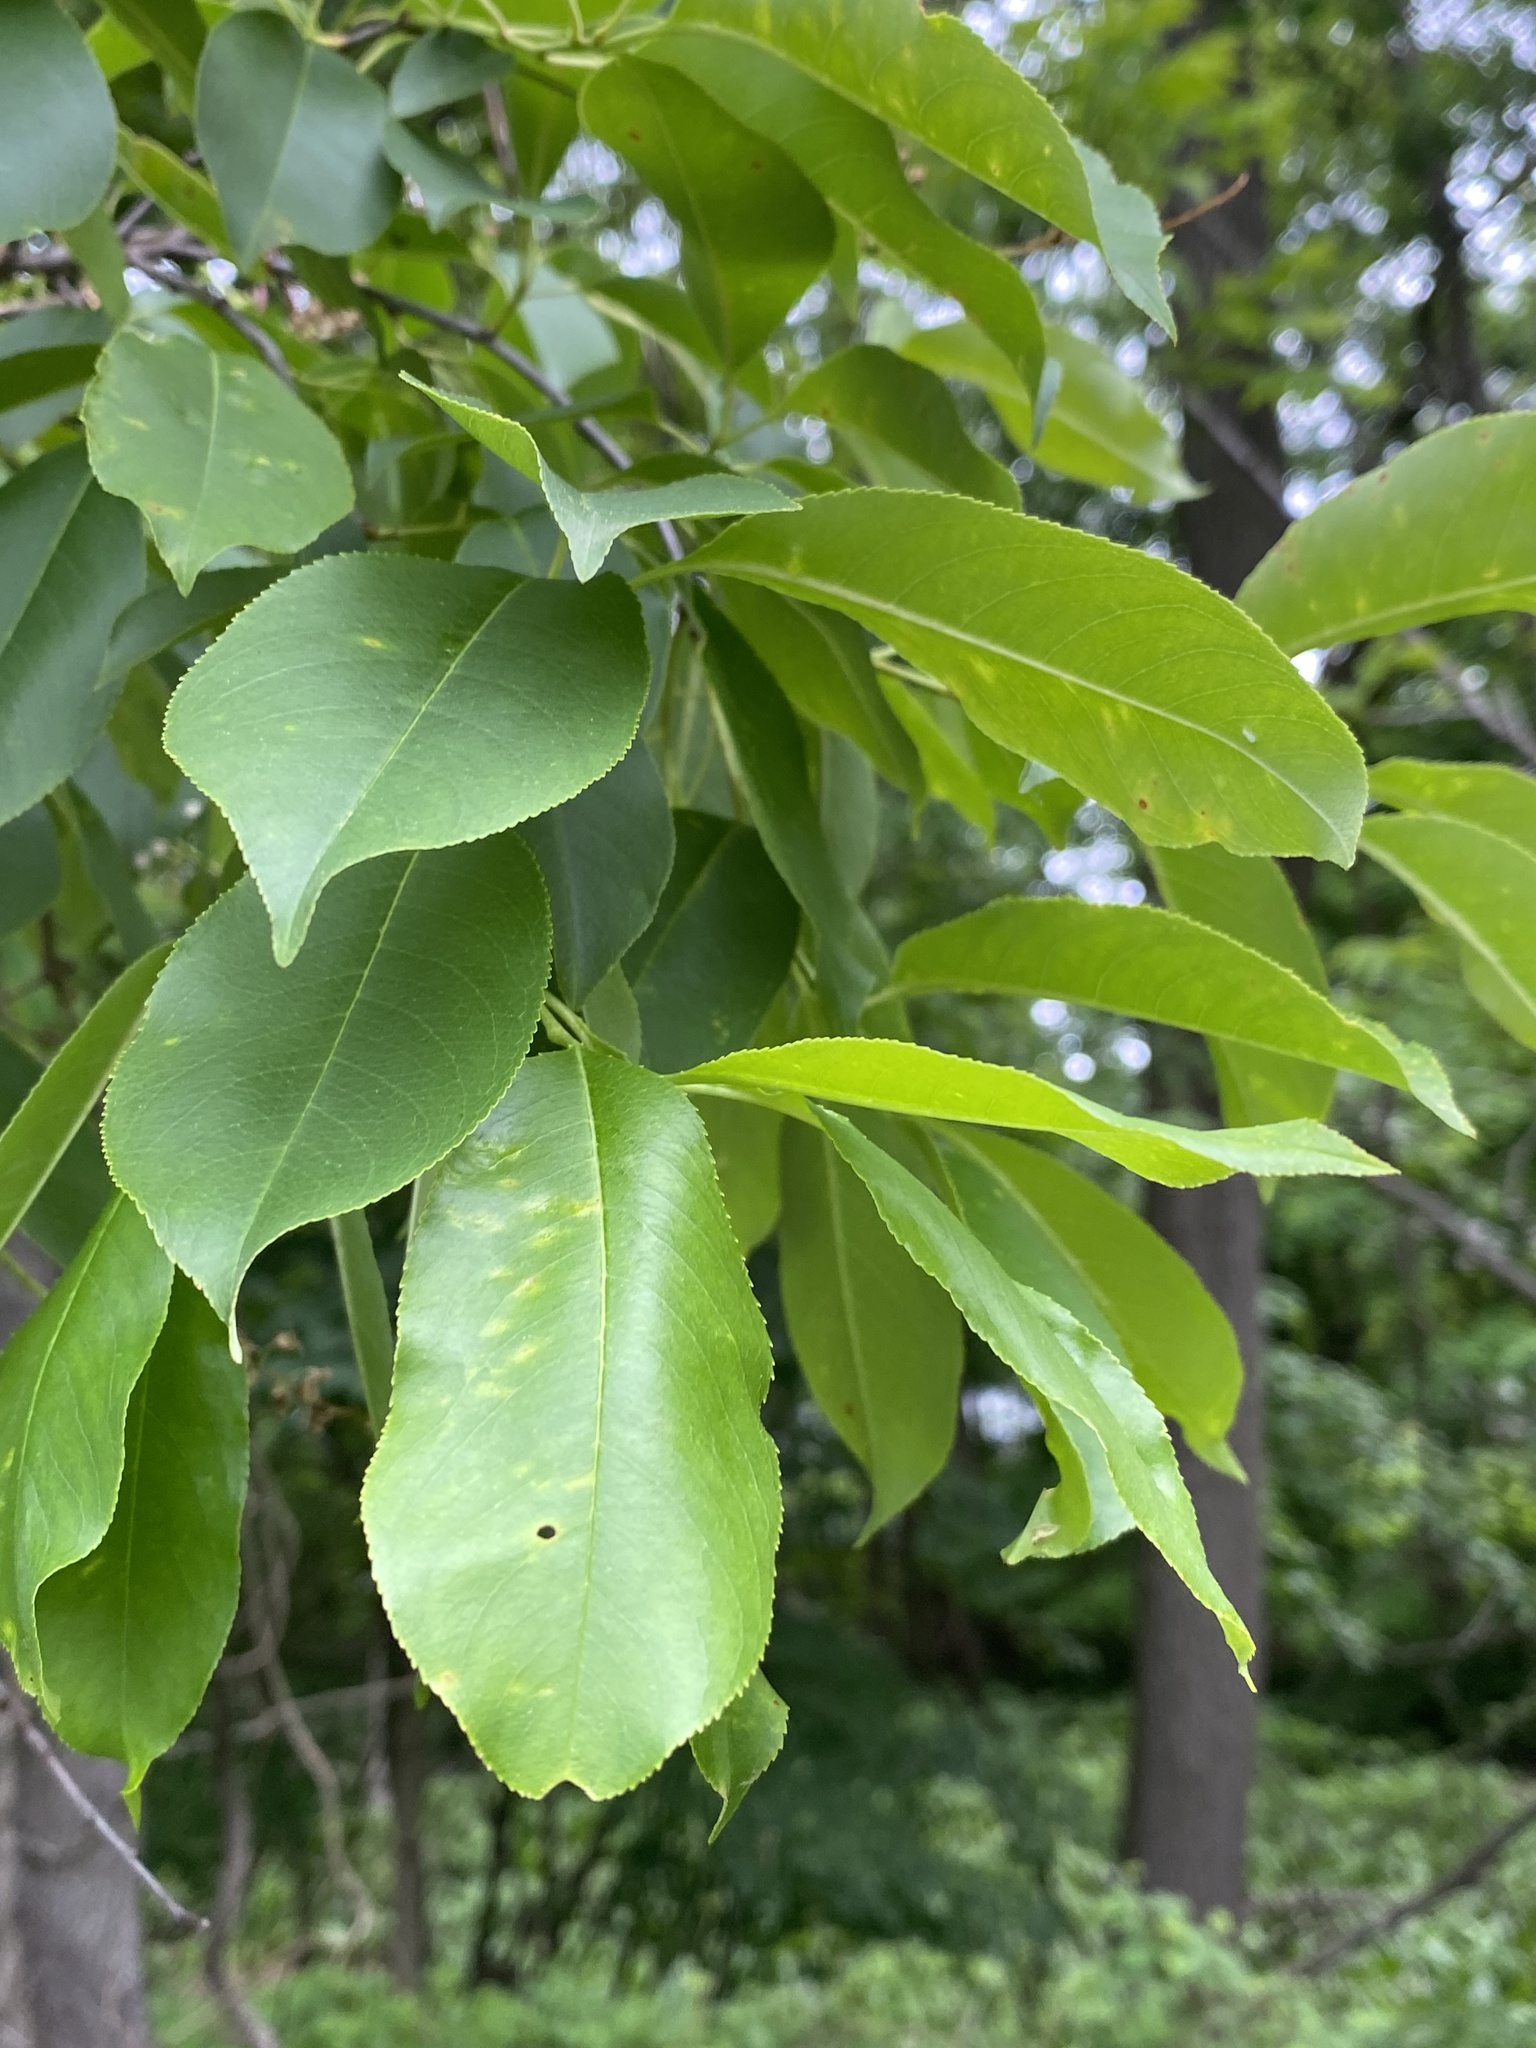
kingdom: Plantae
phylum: Tracheophyta
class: Magnoliopsida
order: Rosales
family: Rosaceae
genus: Prunus
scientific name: Prunus serotina
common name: Black cherry
